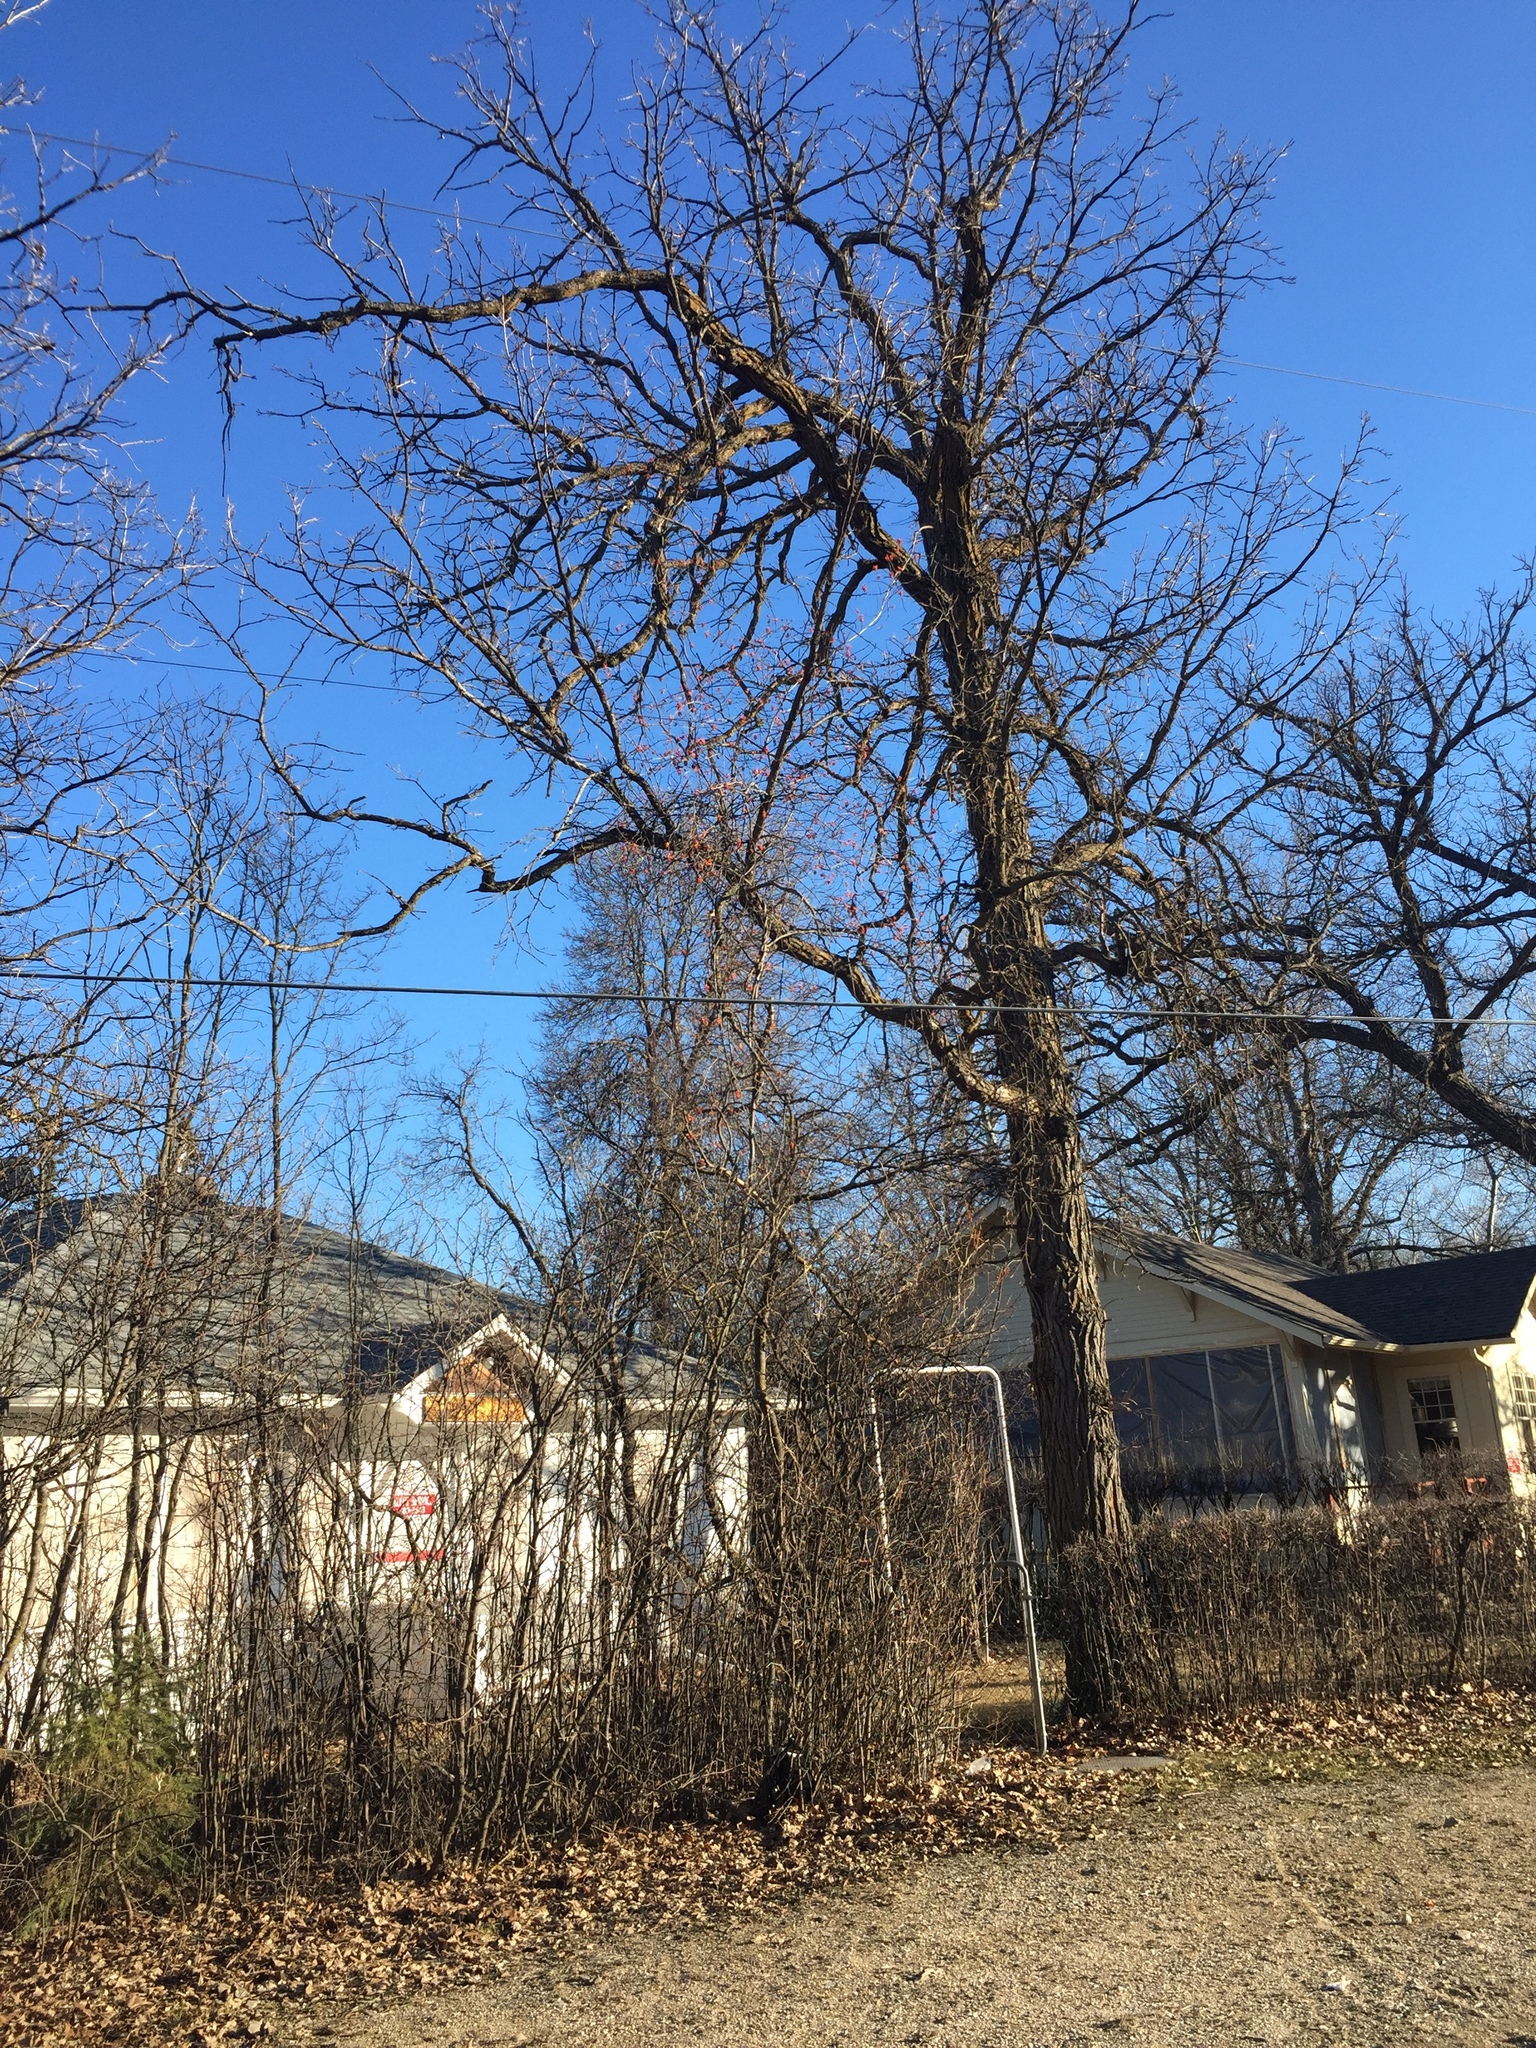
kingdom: Plantae
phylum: Tracheophyta
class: Magnoliopsida
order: Fagales
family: Fagaceae
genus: Quercus
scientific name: Quercus macrocarpa
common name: Bur oak
